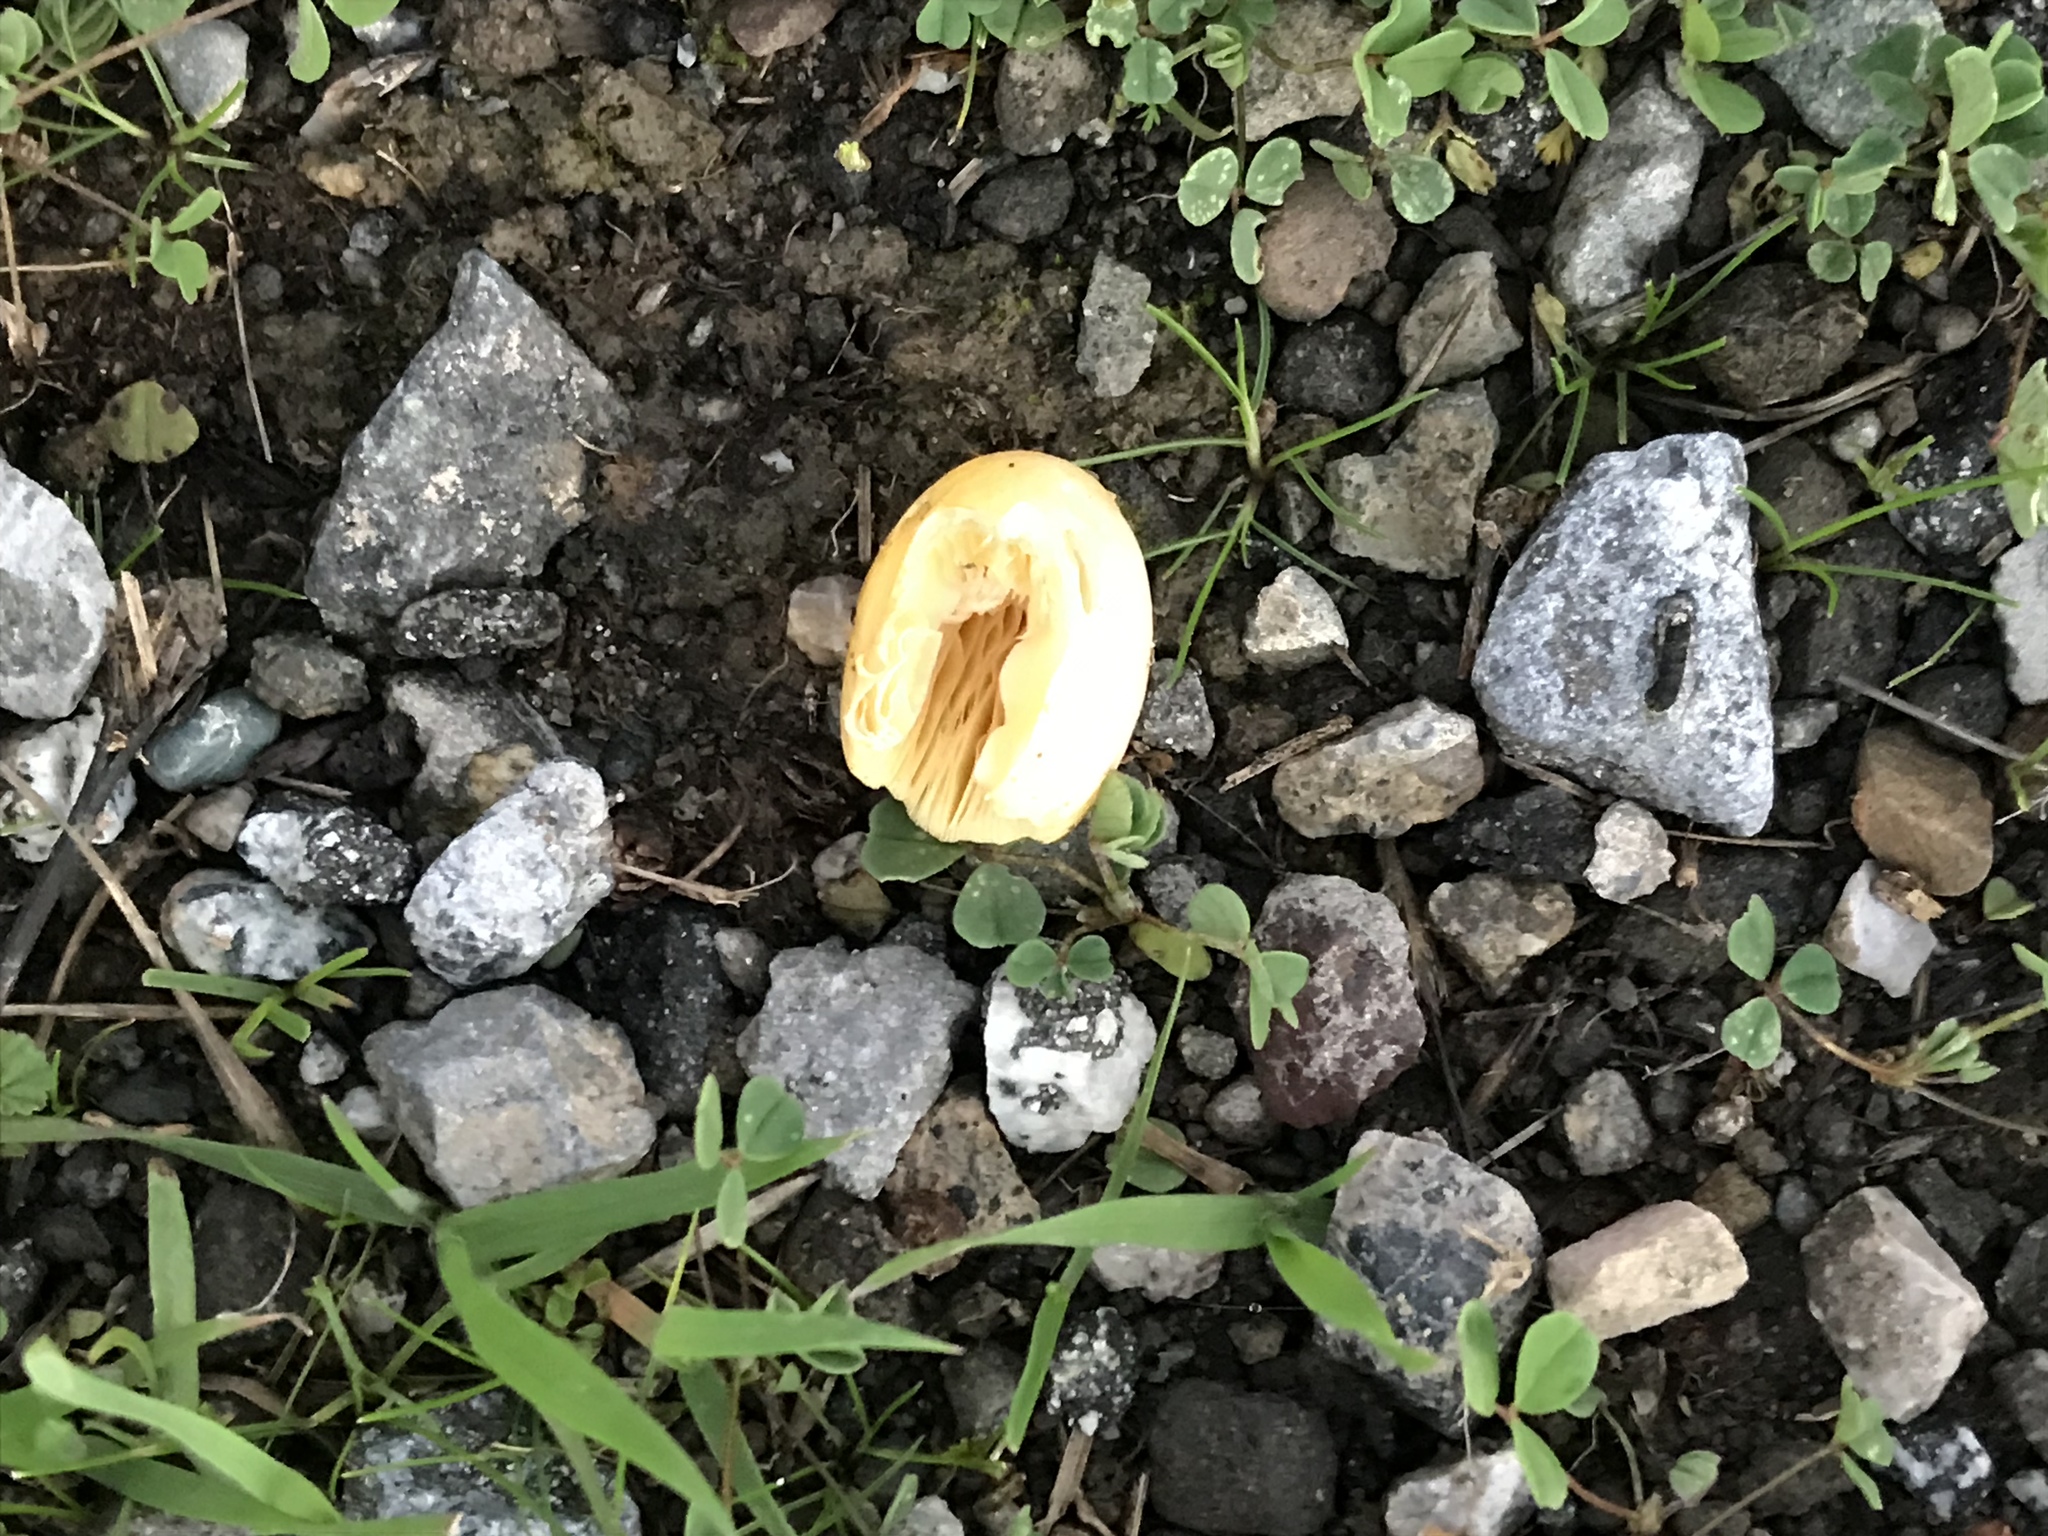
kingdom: Fungi
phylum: Basidiomycota
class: Agaricomycetes
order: Agaricales
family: Bolbitiaceae
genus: Bolbitius
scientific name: Bolbitius titubans
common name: Yellow fieldcap
